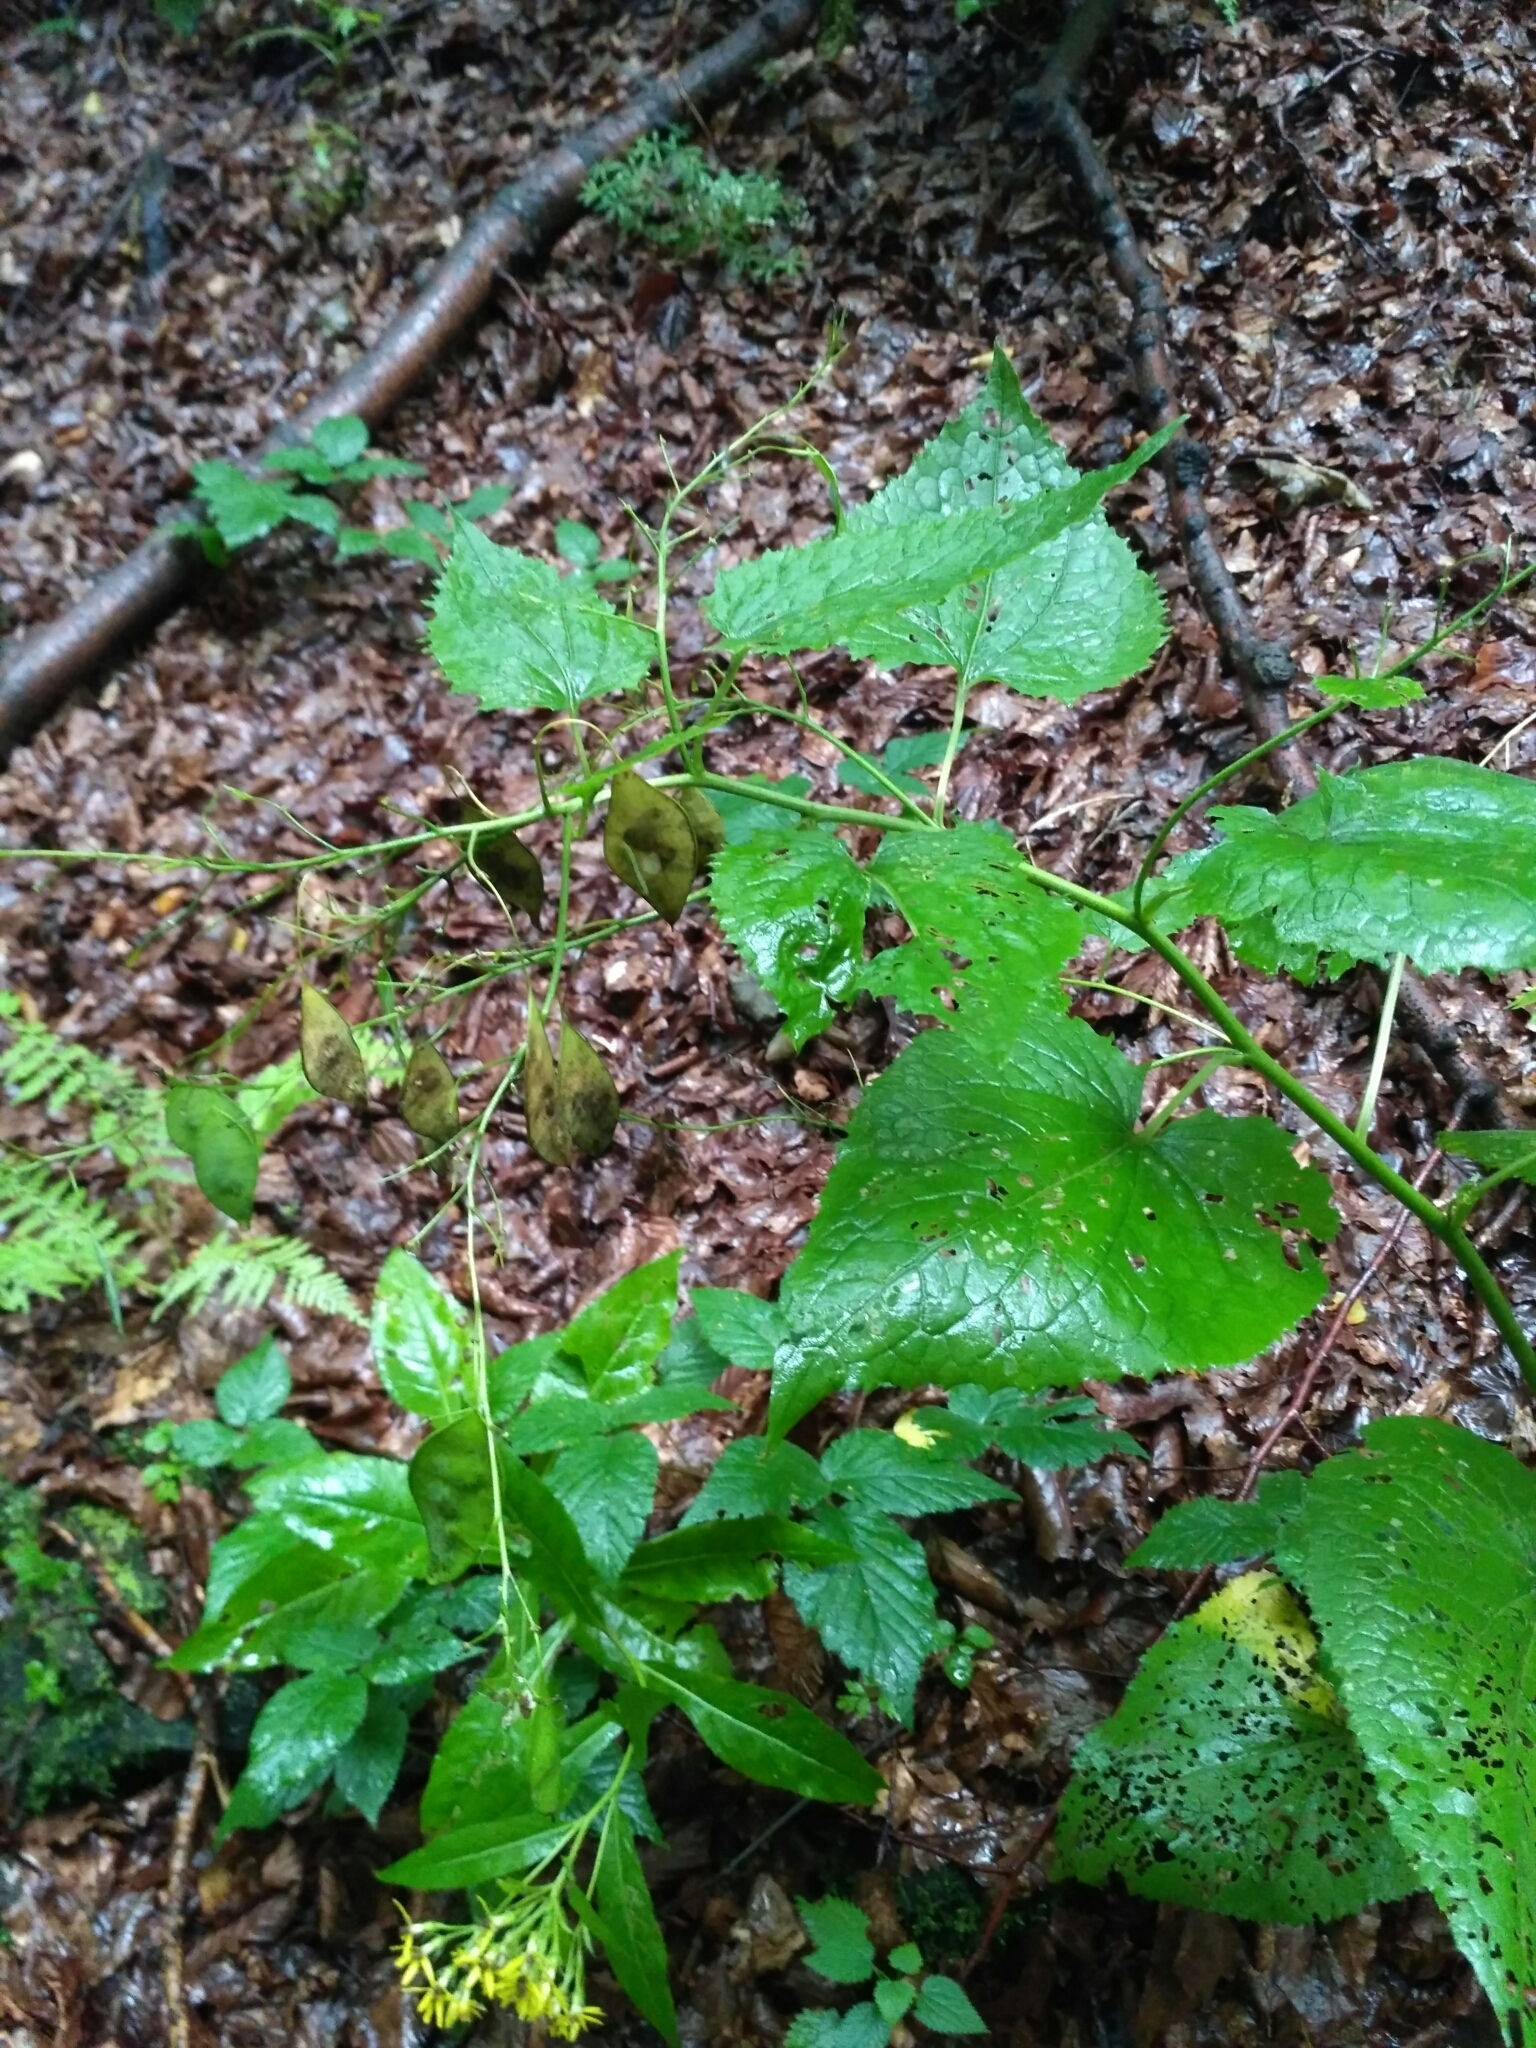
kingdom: Plantae
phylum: Tracheophyta
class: Magnoliopsida
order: Brassicales
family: Brassicaceae
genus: Lunaria
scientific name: Lunaria rediviva
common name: Perennial honesty
